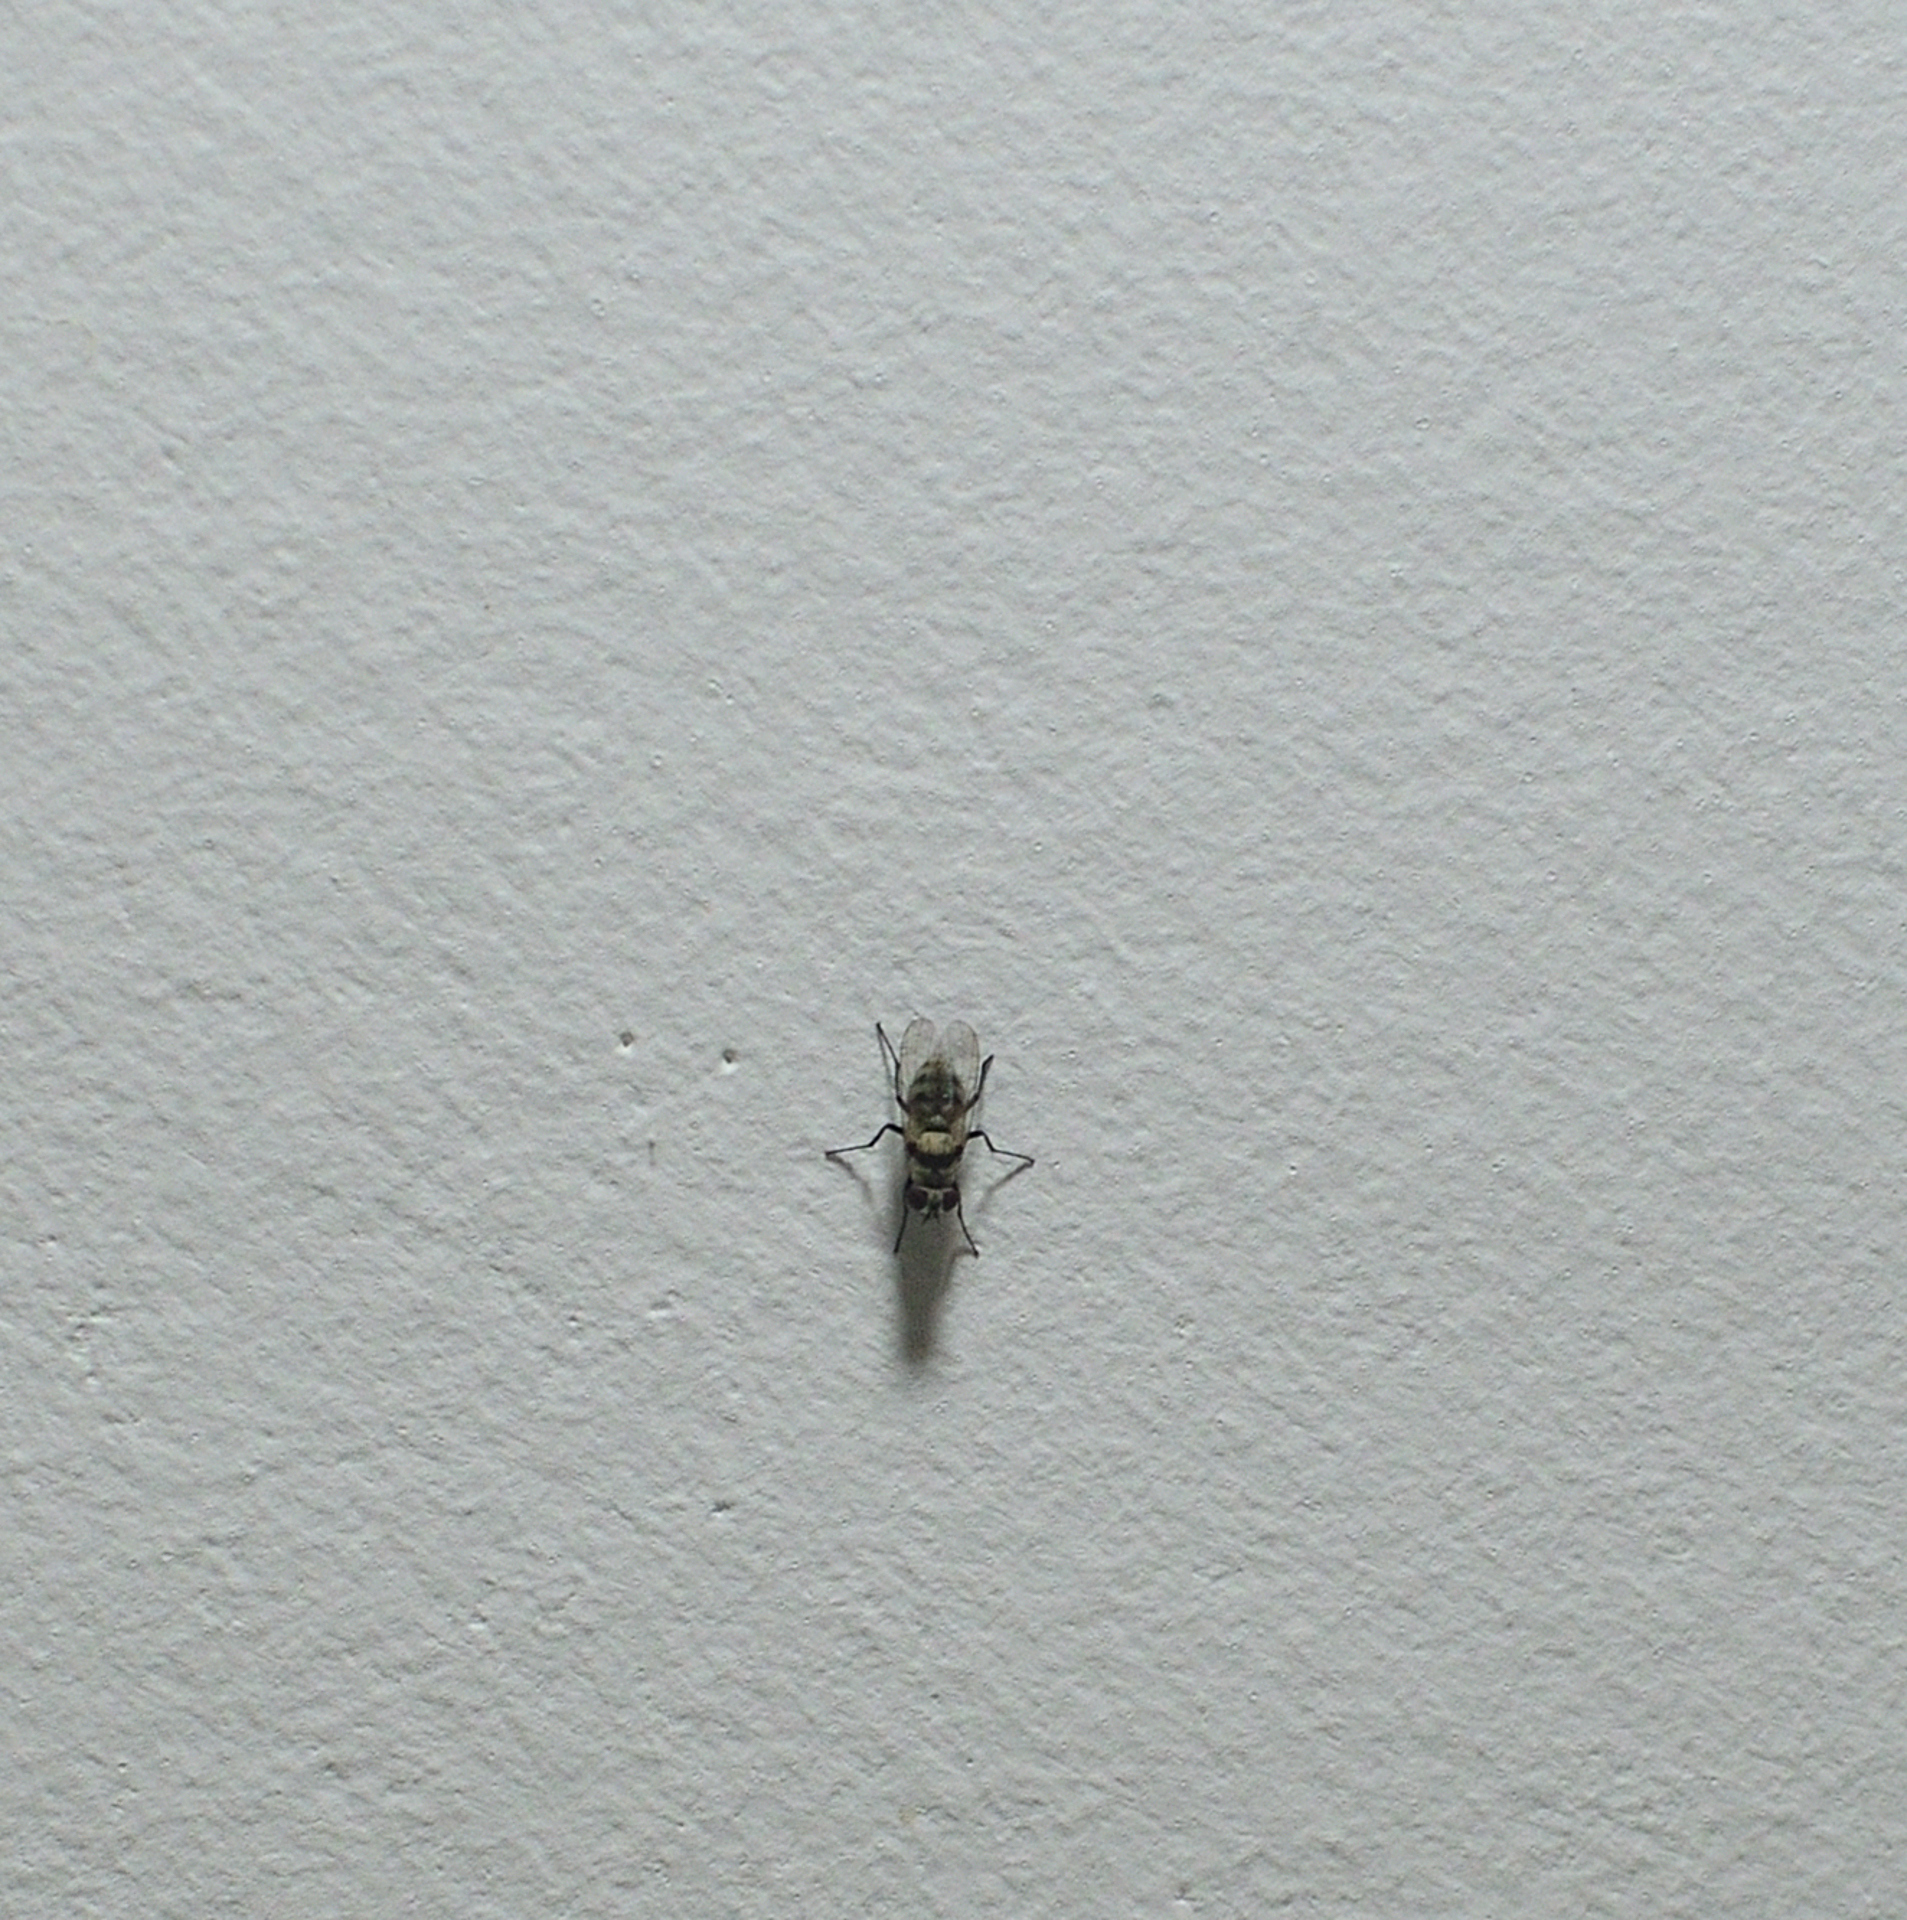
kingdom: Animalia
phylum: Arthropoda
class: Insecta
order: Diptera
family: Anthomyiidae
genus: Anthomyia
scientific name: Anthomyia illocata
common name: Fly
